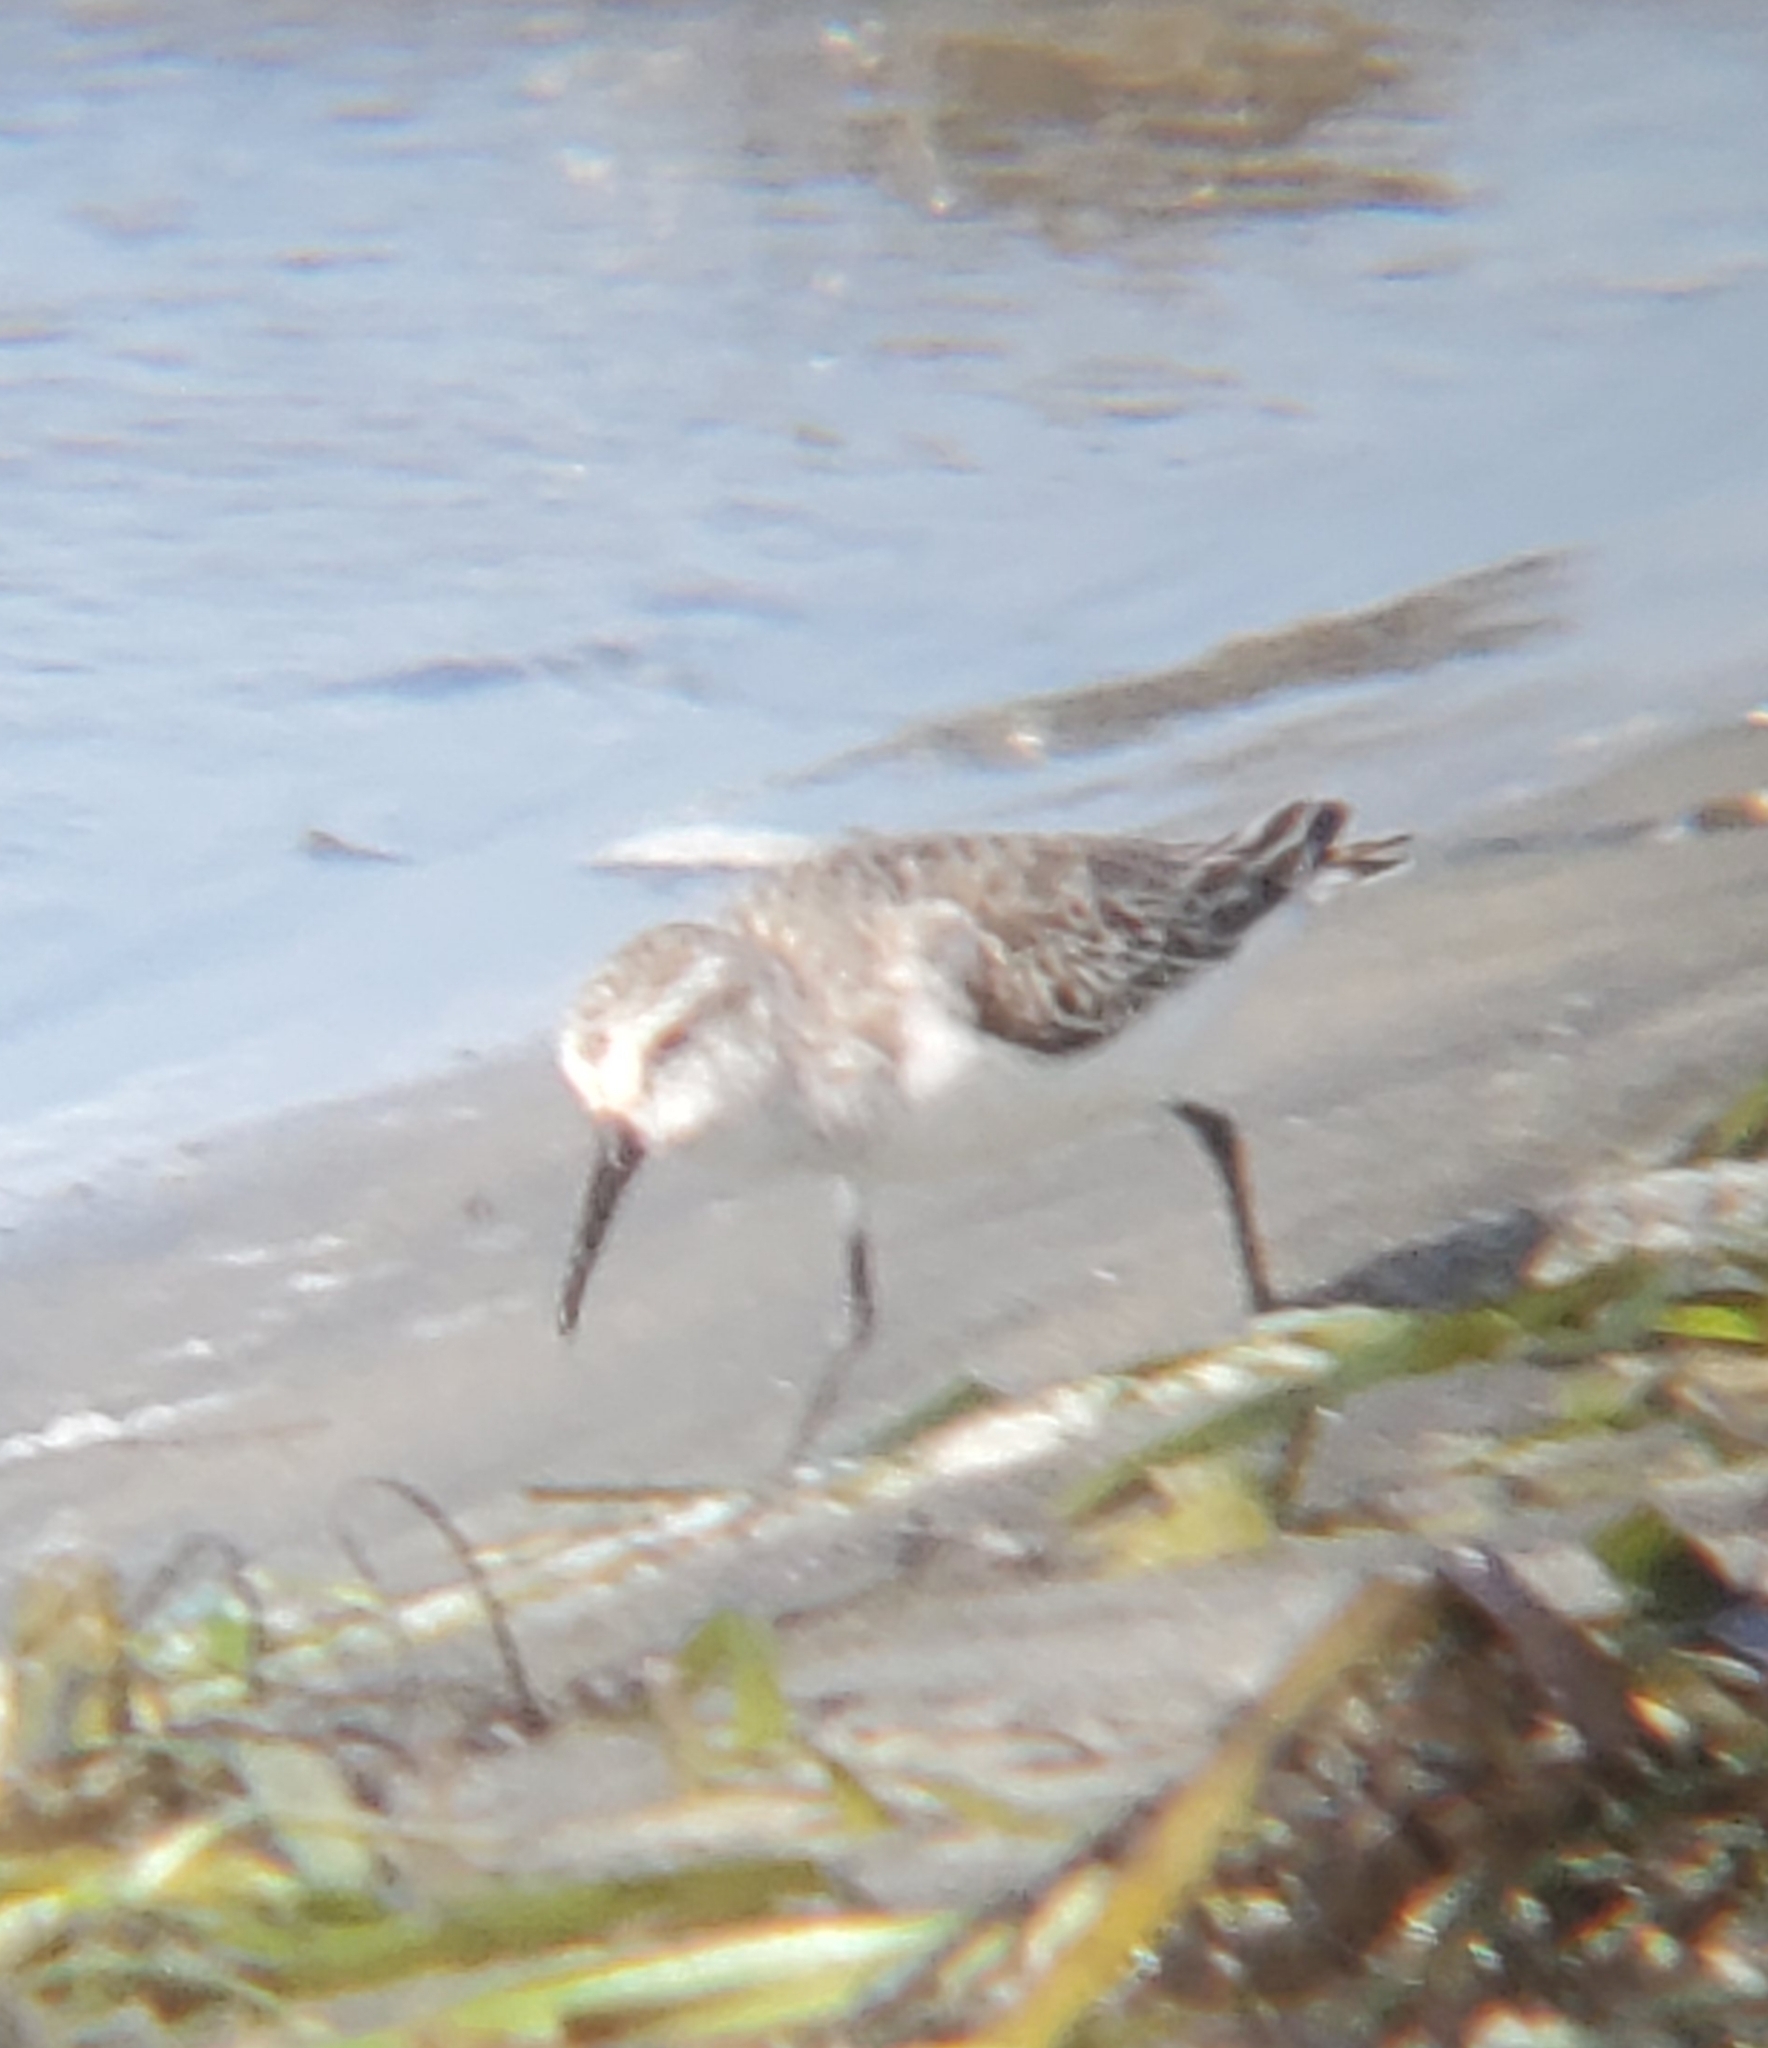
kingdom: Animalia
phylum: Chordata
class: Aves
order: Charadriiformes
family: Scolopacidae
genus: Calidris
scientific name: Calidris mauri
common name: Western sandpiper
